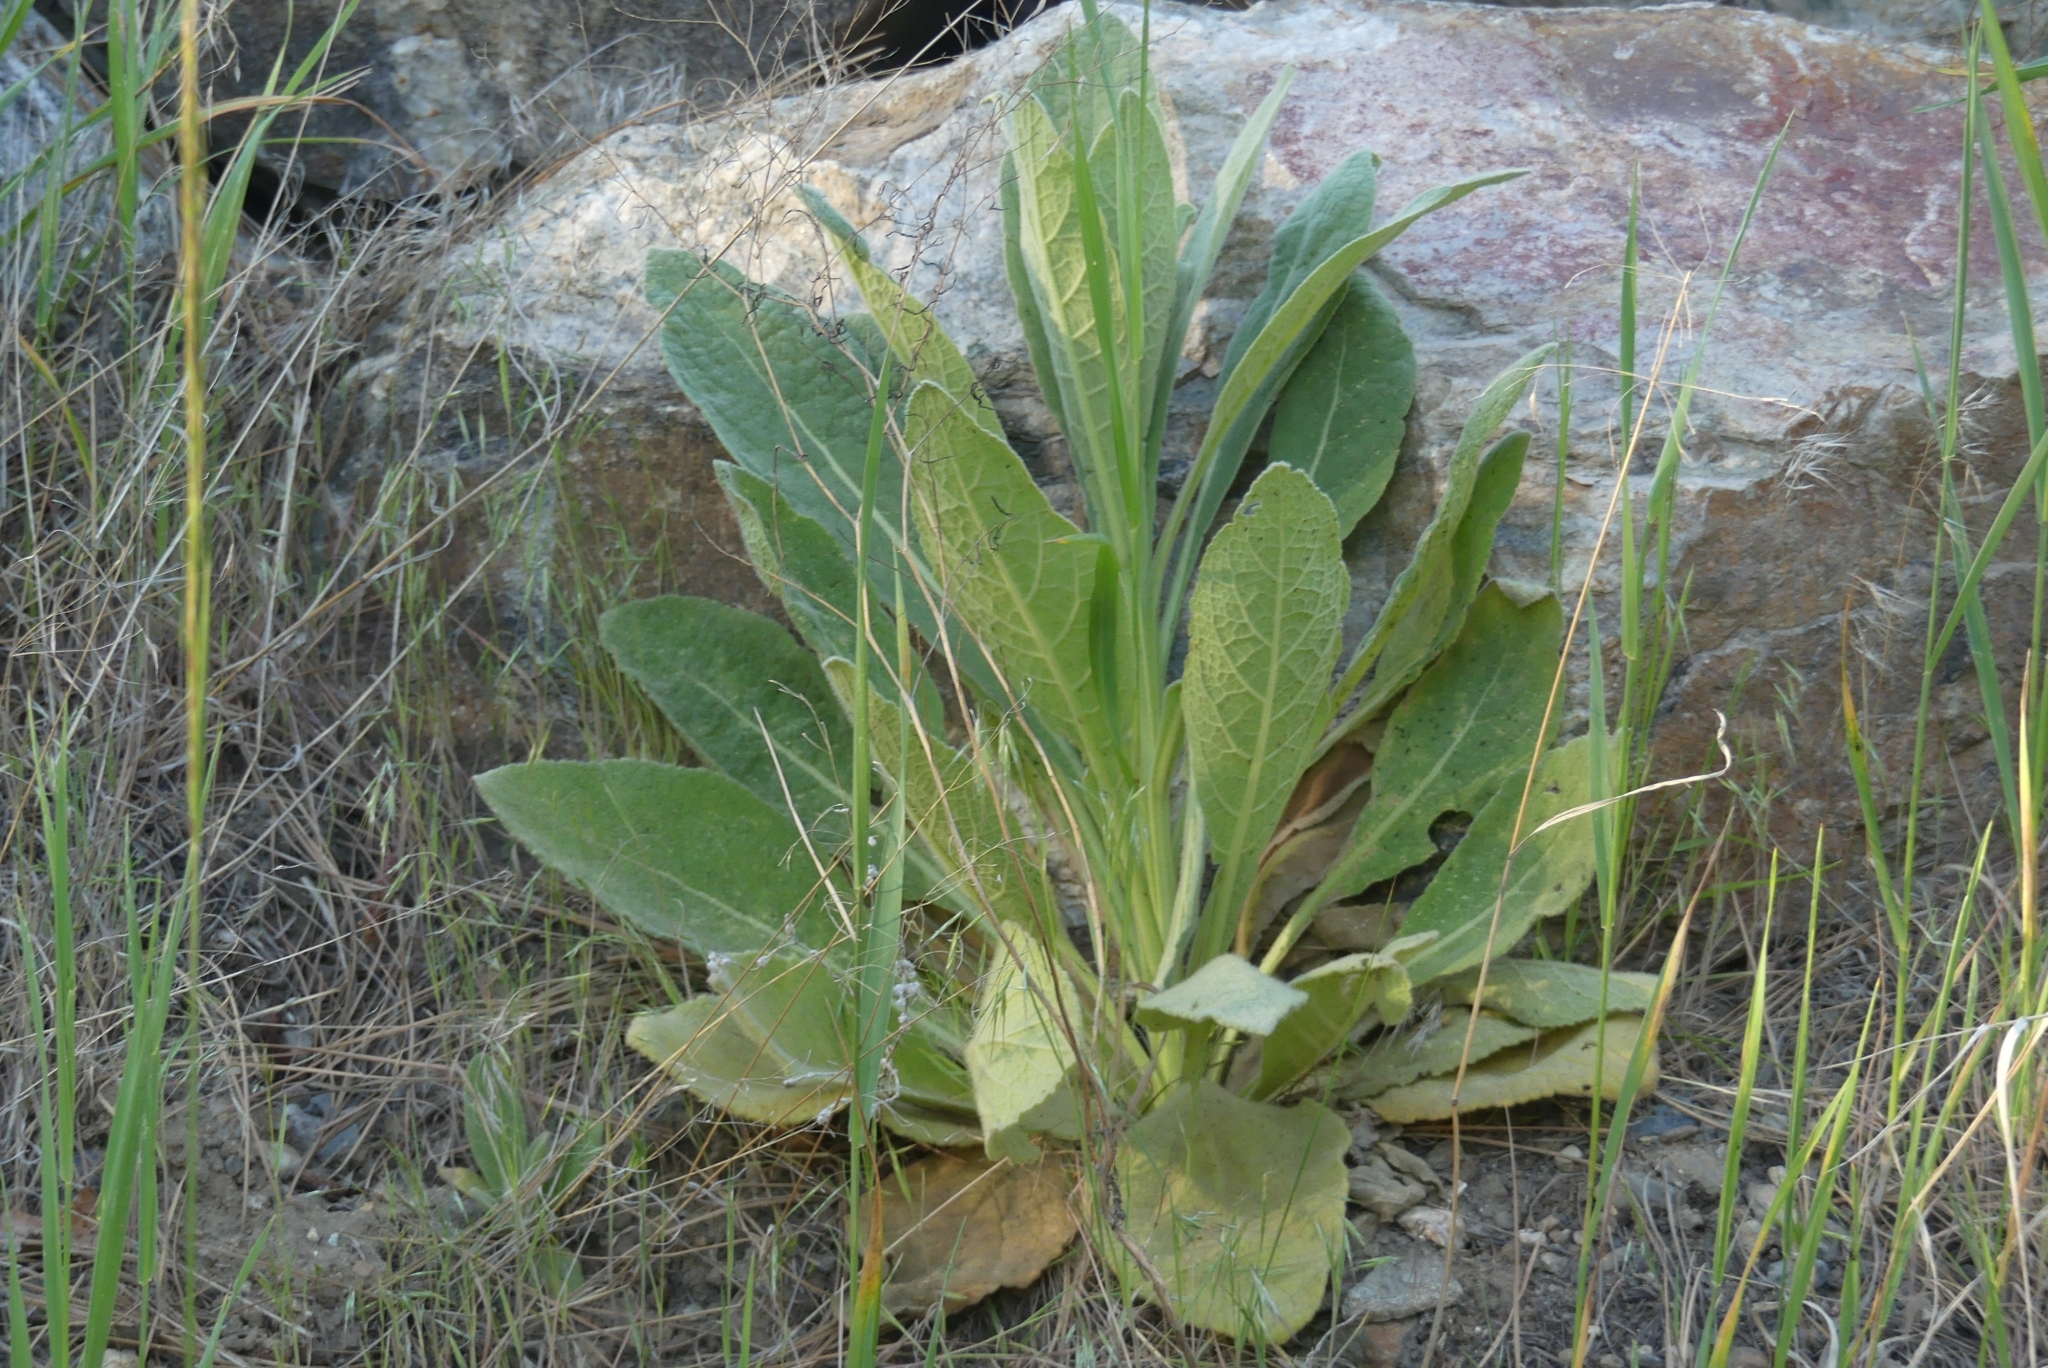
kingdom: Plantae
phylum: Tracheophyta
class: Magnoliopsida
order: Lamiales
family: Scrophulariaceae
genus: Verbascum
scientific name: Verbascum thapsus
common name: Common mullein
